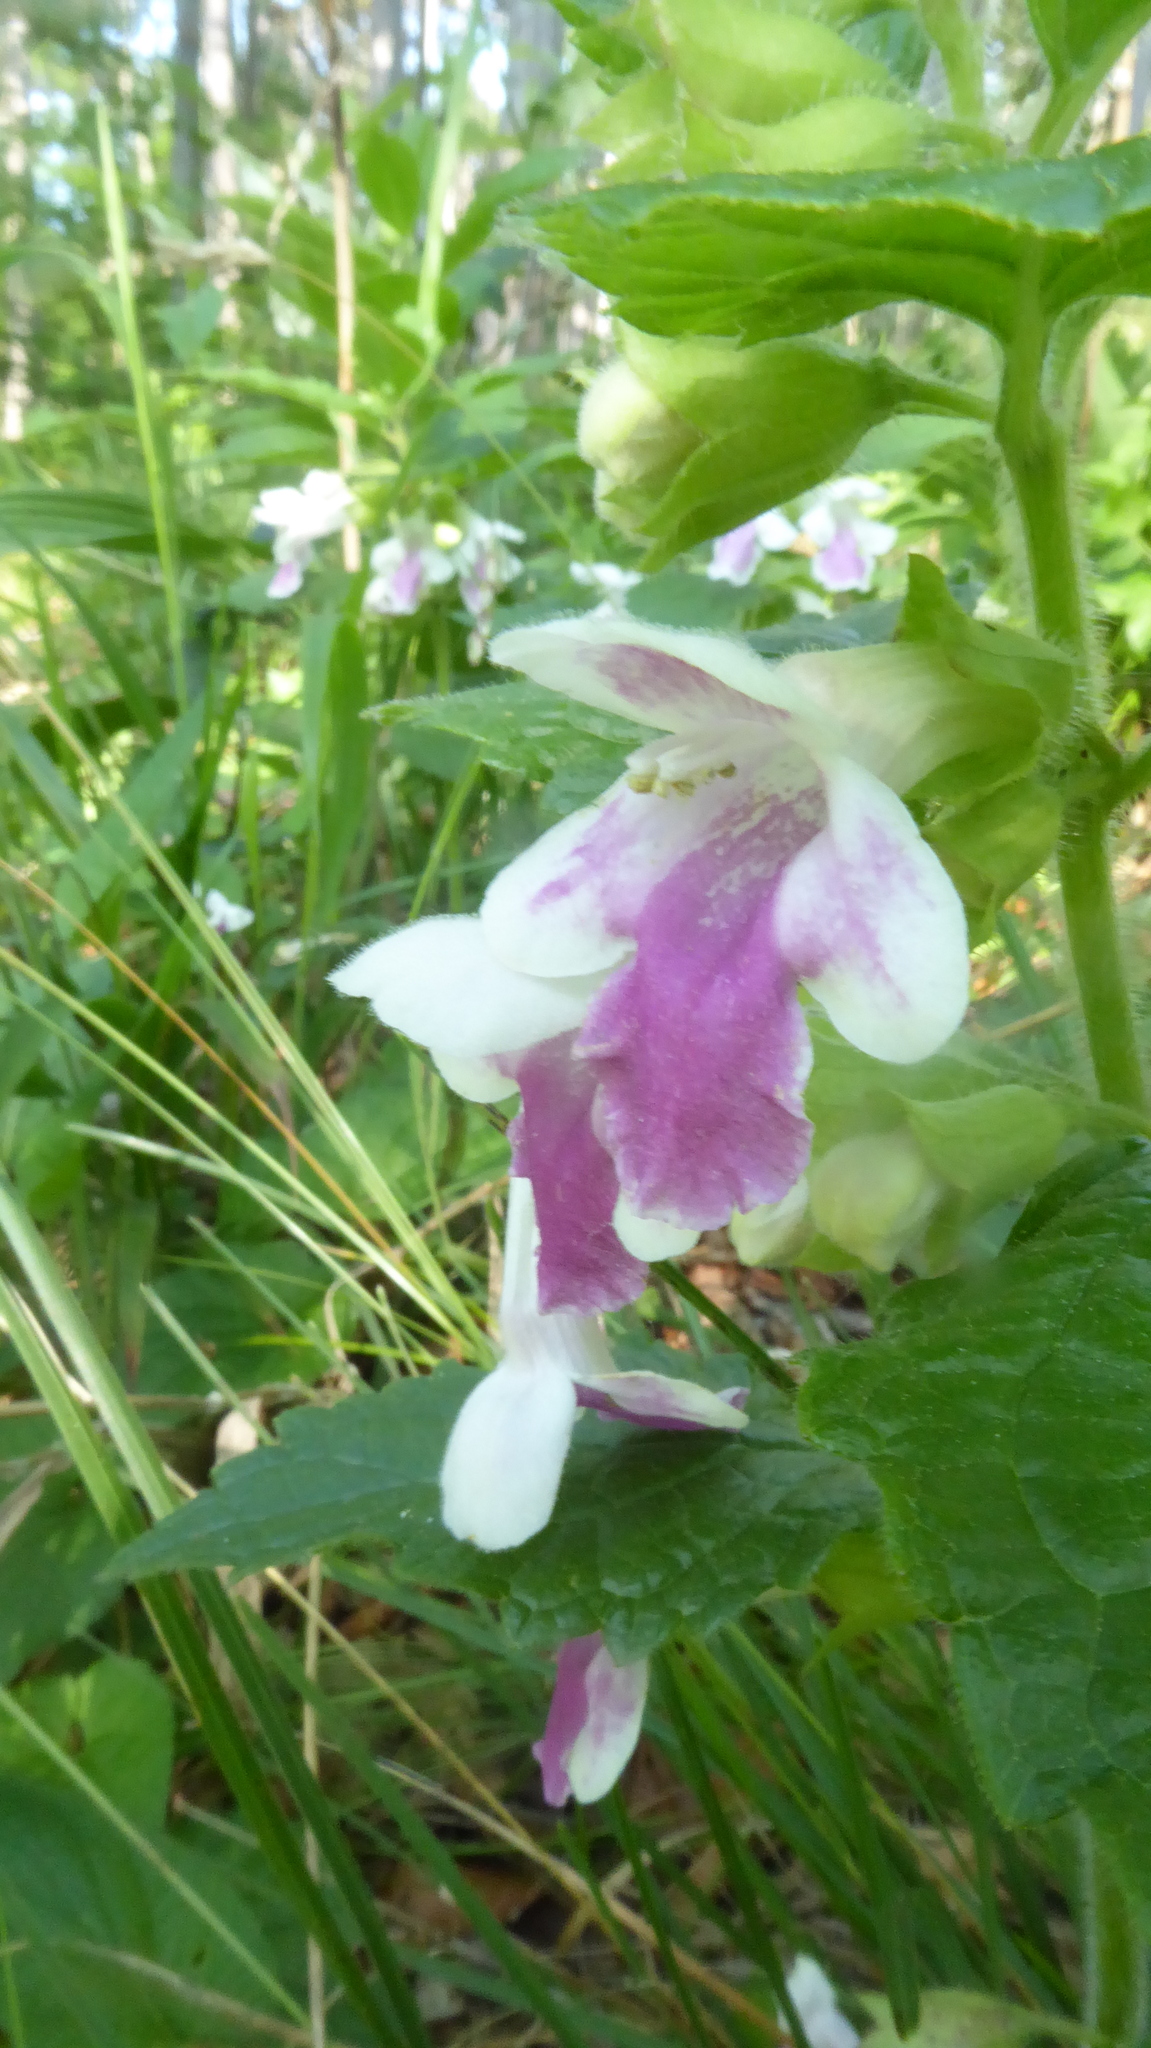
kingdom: Plantae
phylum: Tracheophyta
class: Magnoliopsida
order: Lamiales
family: Lamiaceae
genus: Melittis
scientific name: Melittis melissophyllum
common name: Bastard balm
